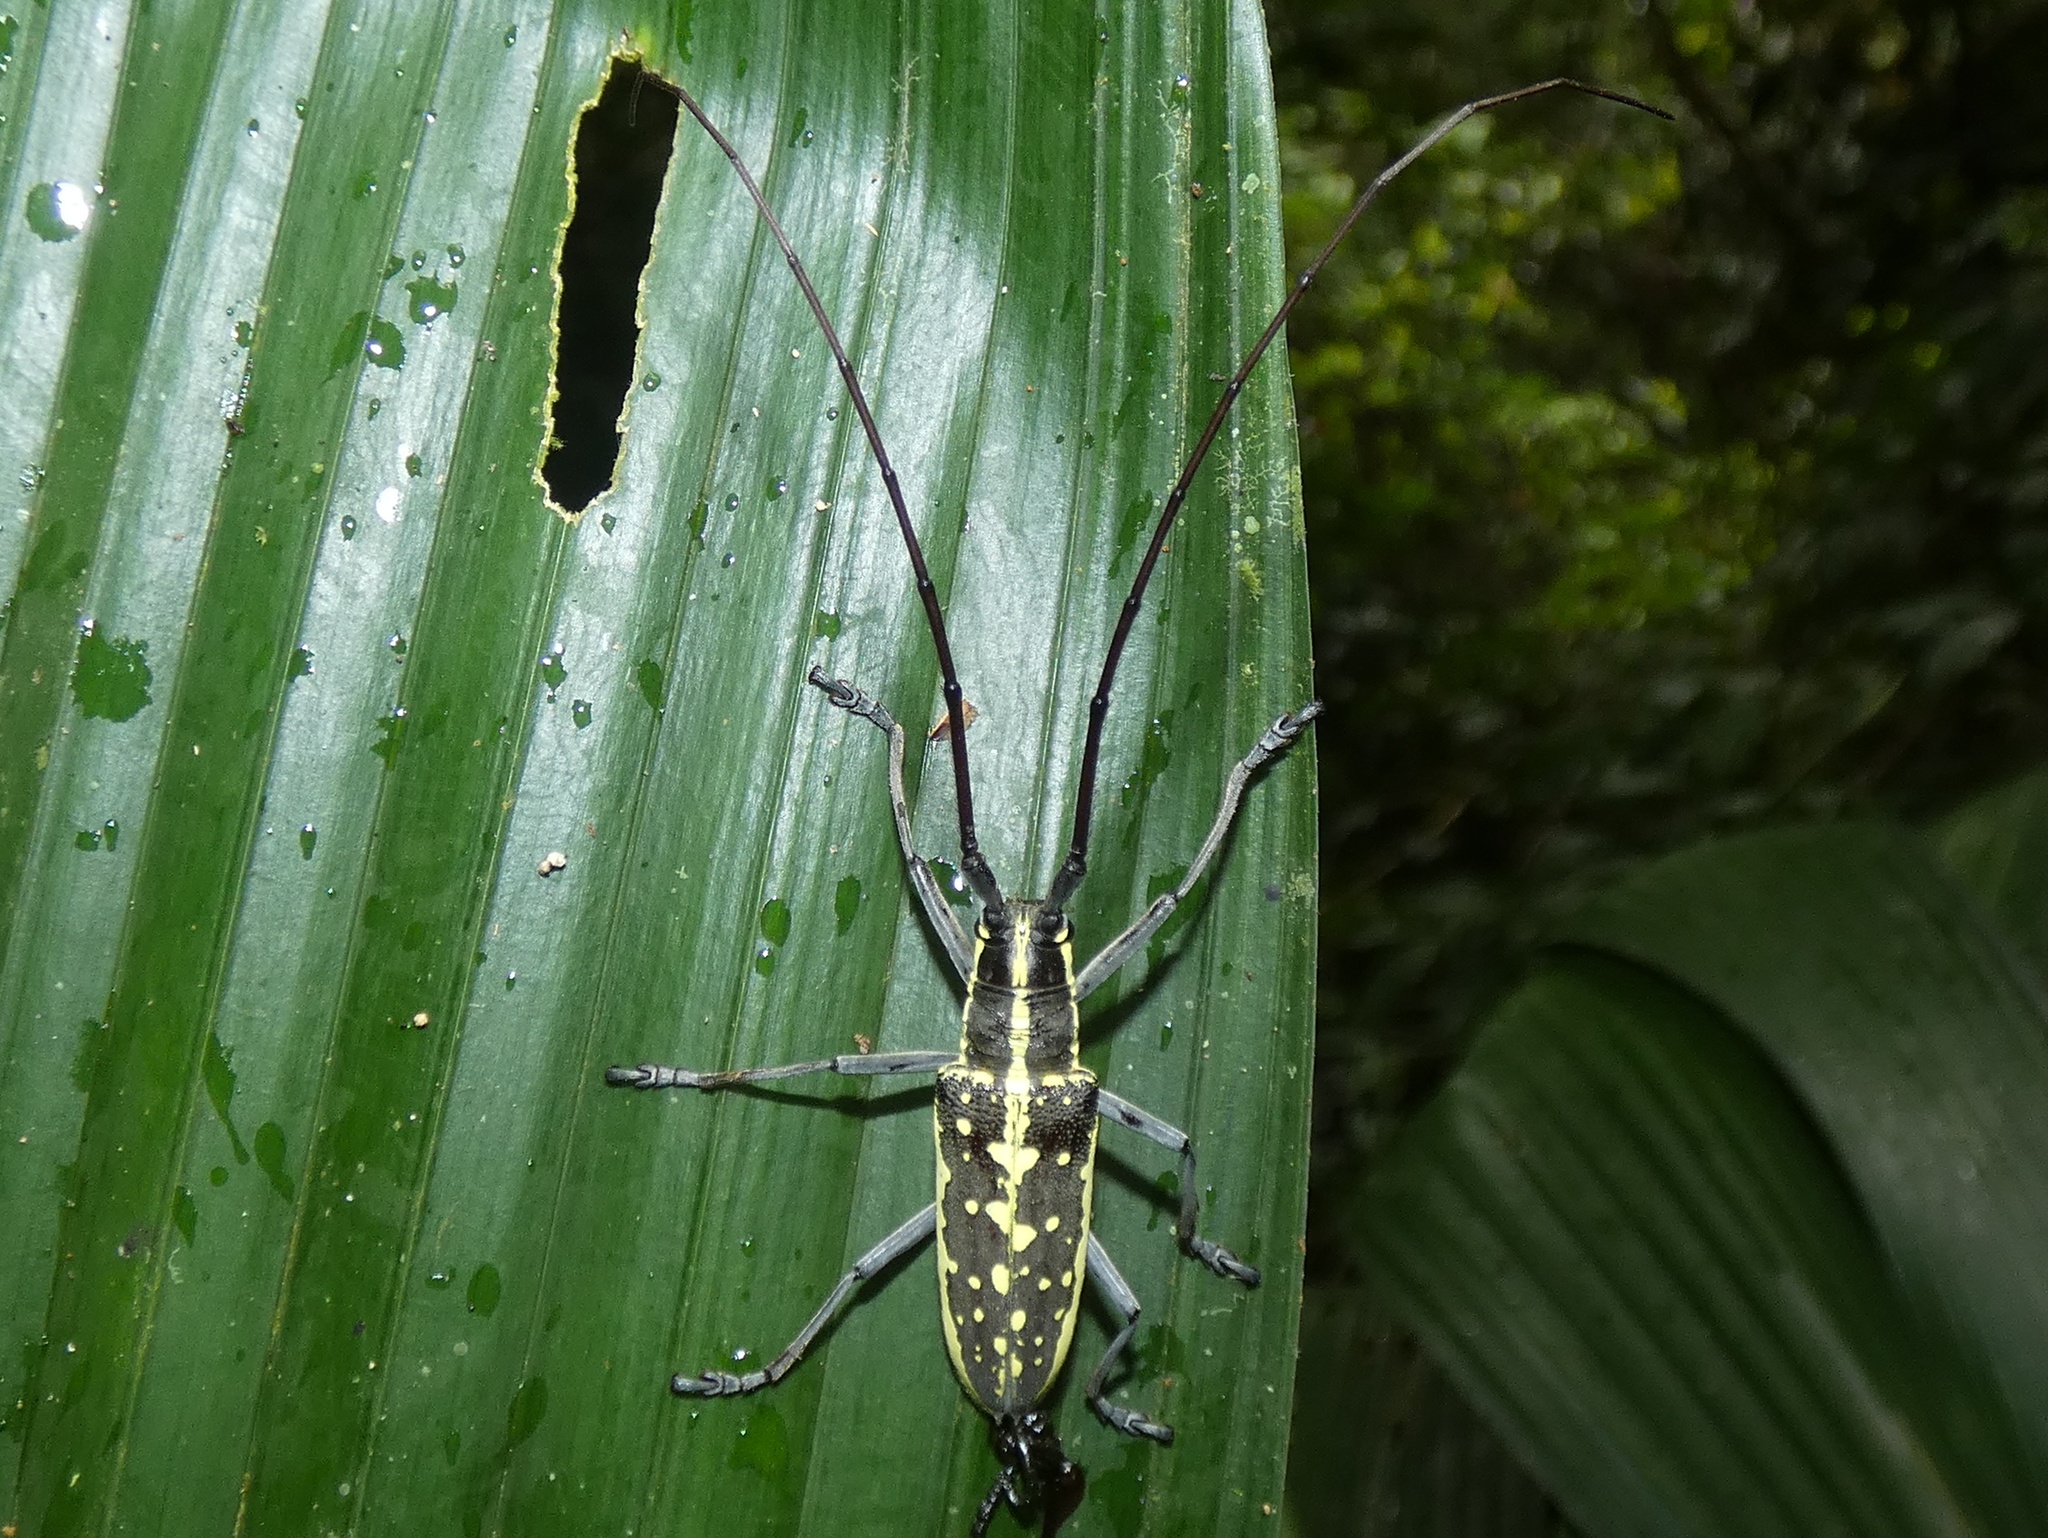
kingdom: Animalia
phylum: Arthropoda
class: Insecta
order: Coleoptera
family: Cerambycidae
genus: Neoptychodes
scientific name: Neoptychodes candidus
